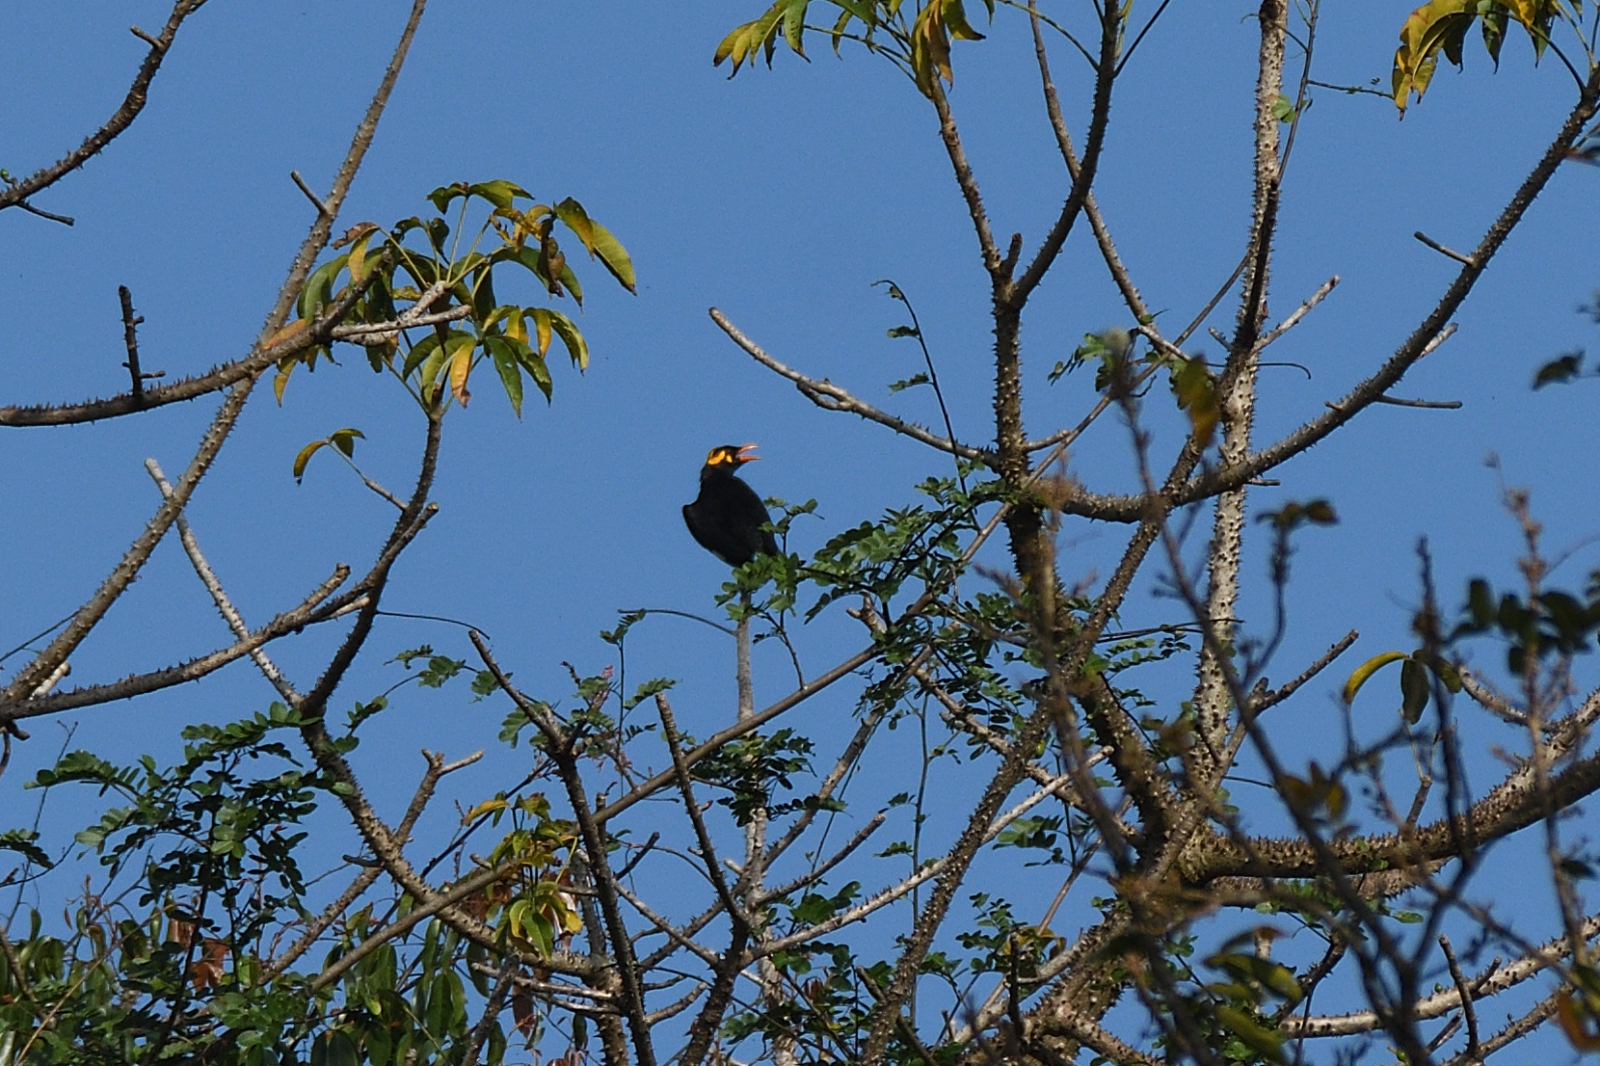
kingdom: Animalia
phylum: Chordata
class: Aves
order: Passeriformes
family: Sturnidae
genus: Gracula
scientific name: Gracula indica
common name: Southern hill myna
